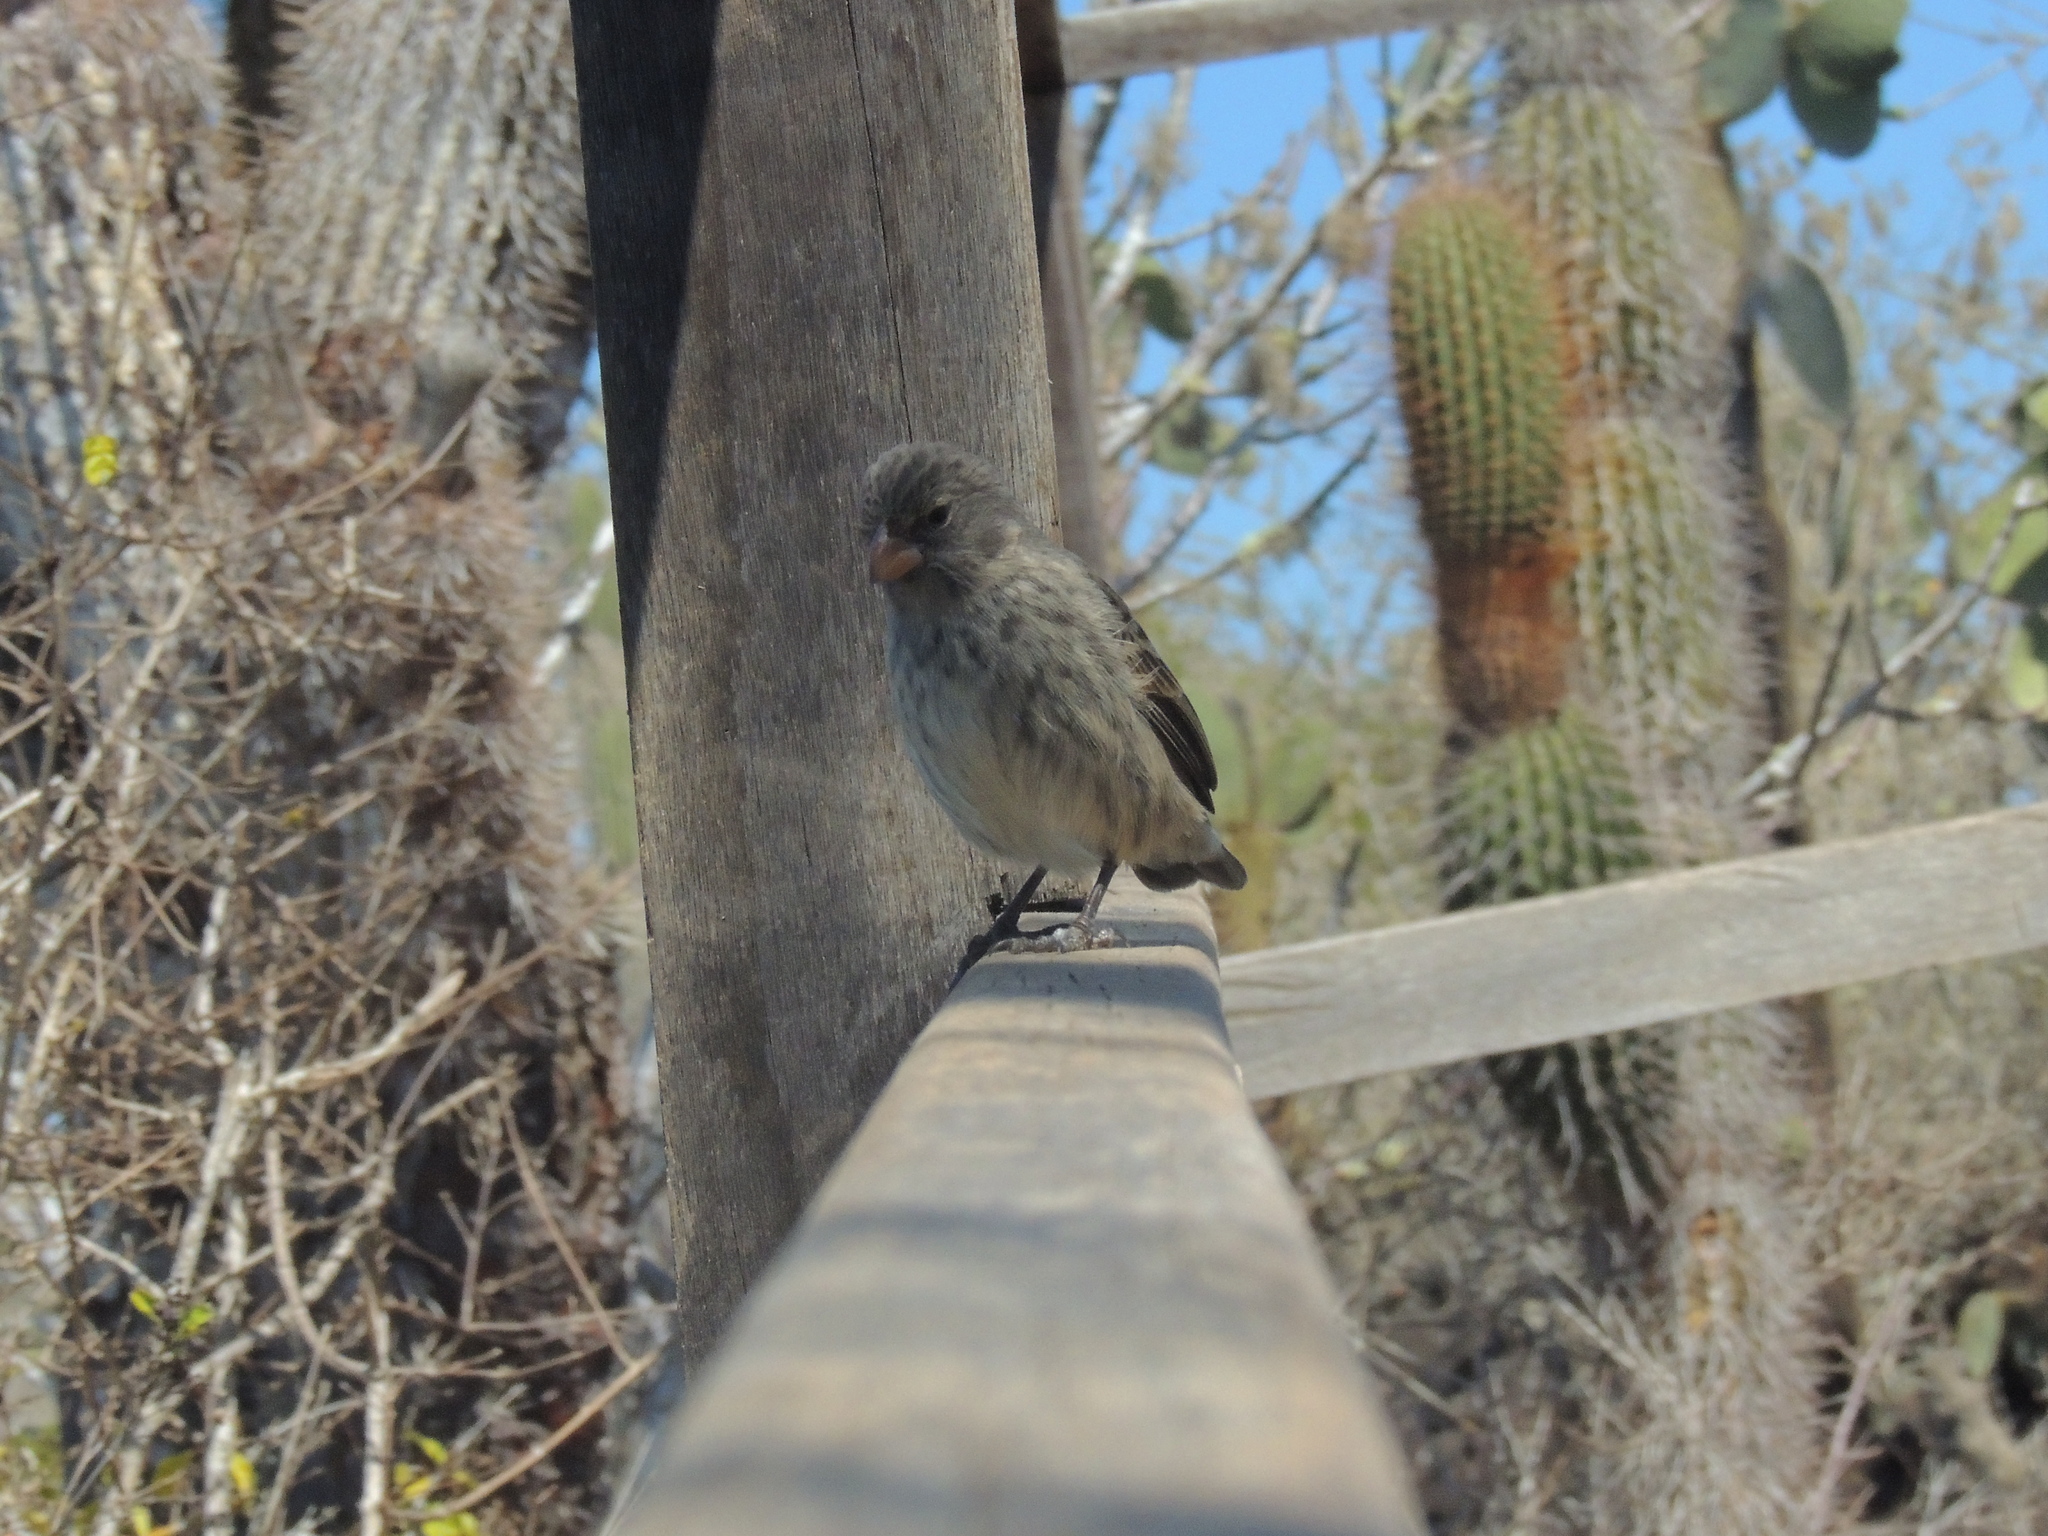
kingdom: Animalia
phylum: Chordata
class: Aves
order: Passeriformes
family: Thraupidae
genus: Geospiza
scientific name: Geospiza fuliginosa
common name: Small ground finch
